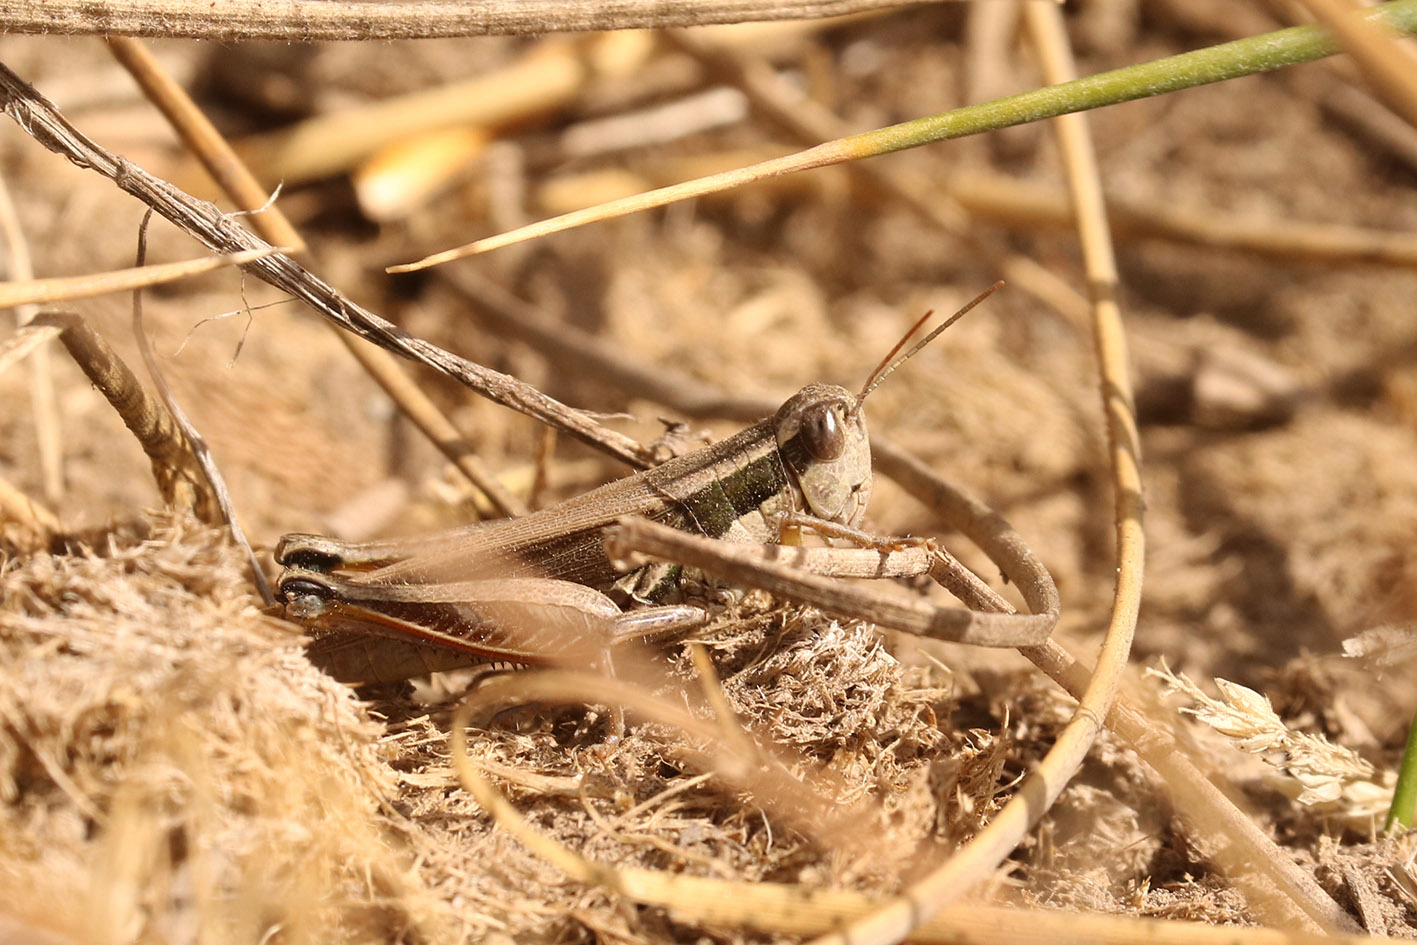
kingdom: Animalia
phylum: Arthropoda
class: Insecta
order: Orthoptera
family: Acrididae
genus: Dichroplus
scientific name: Dichroplus elongatus
